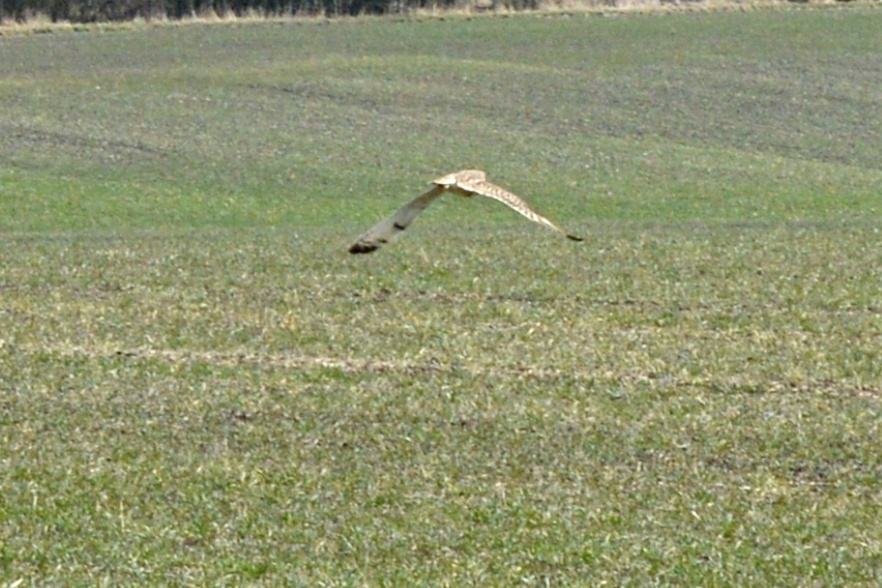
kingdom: Animalia
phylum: Chordata
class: Aves
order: Strigiformes
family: Strigidae
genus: Asio
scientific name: Asio flammeus
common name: Short-eared owl
